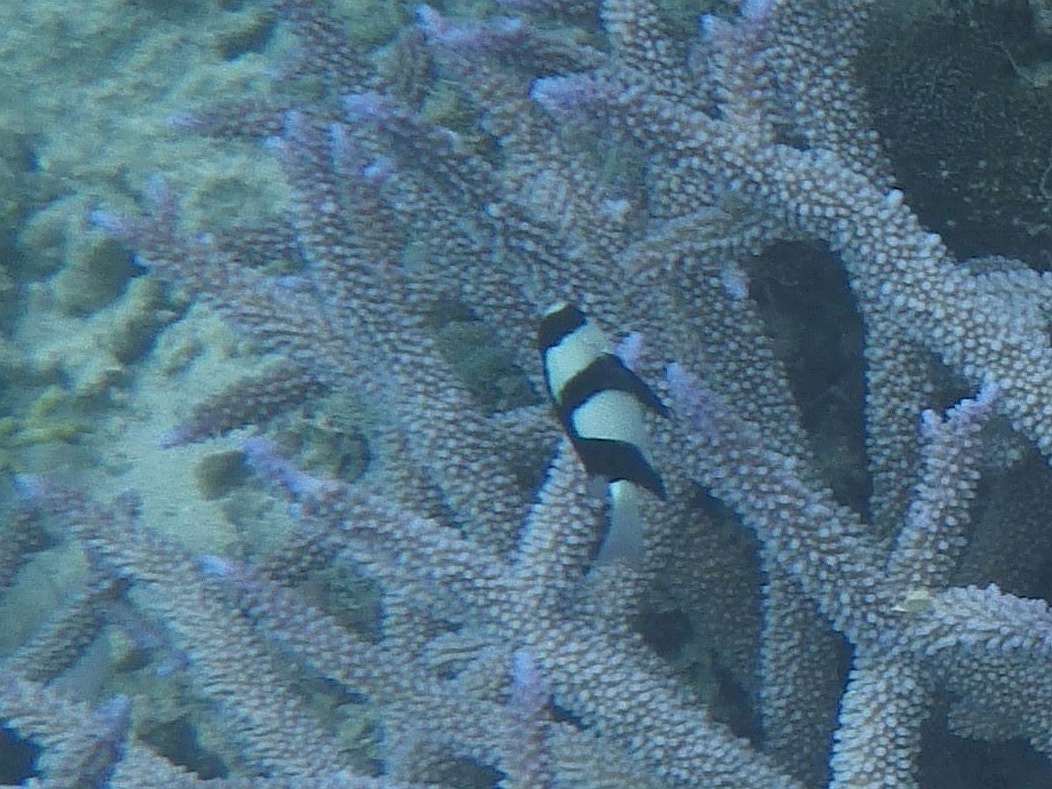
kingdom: Animalia
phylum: Chordata
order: Perciformes
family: Pomacentridae
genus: Dascyllus
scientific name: Dascyllus aruanus
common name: Humbug dascyllus
